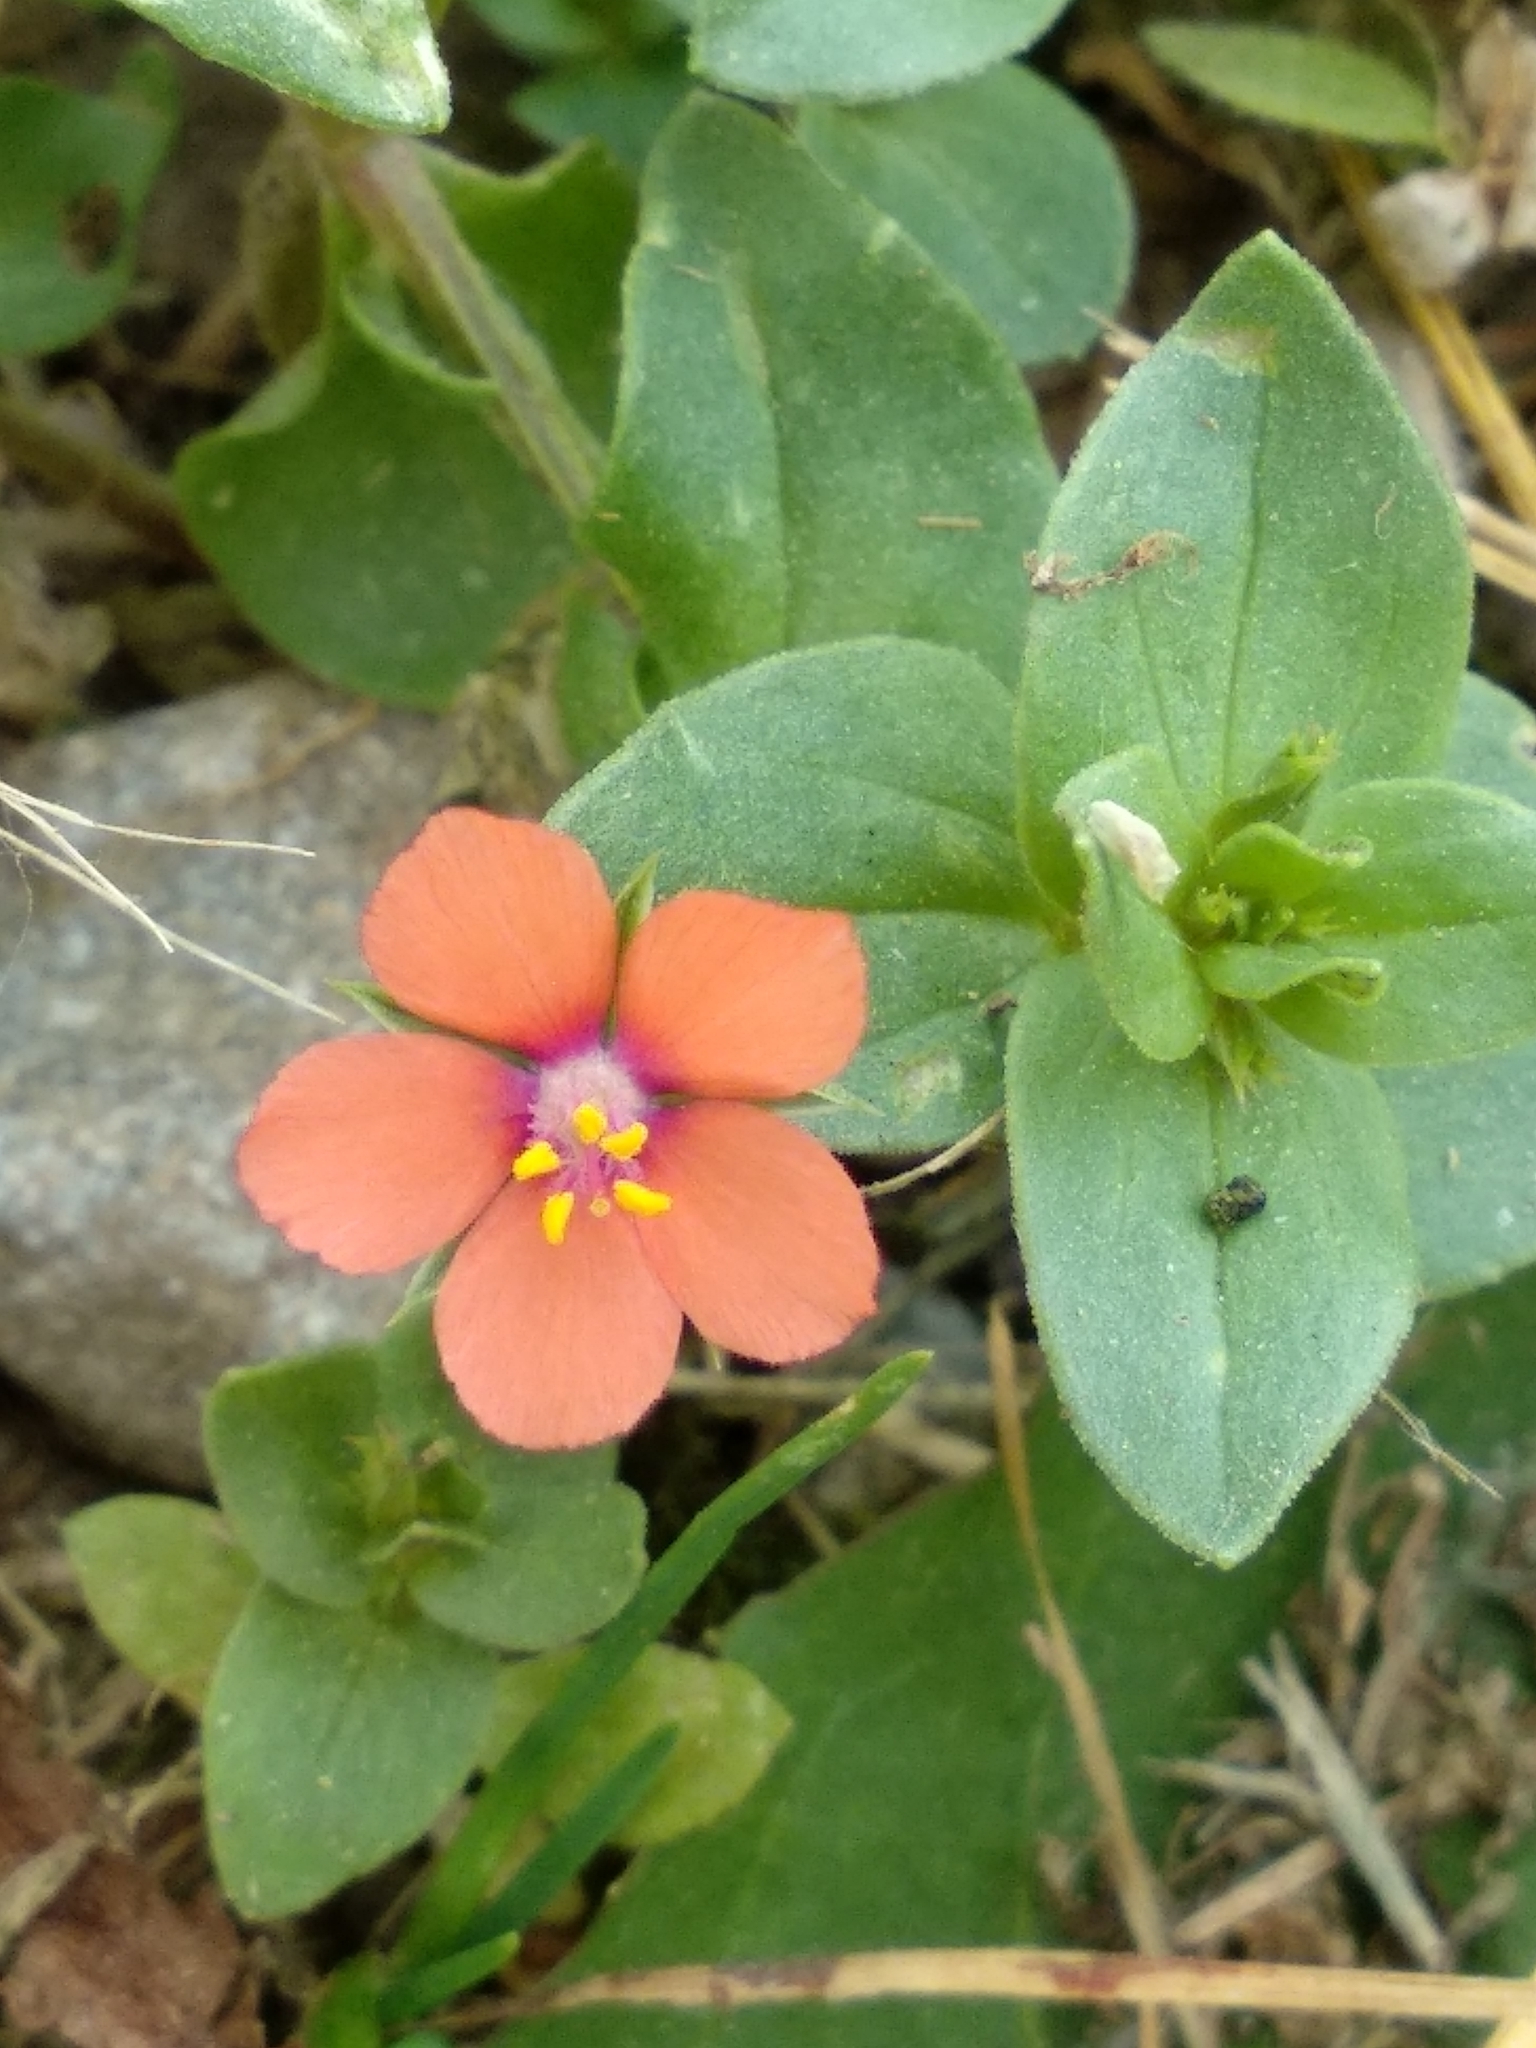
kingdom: Plantae
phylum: Tracheophyta
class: Magnoliopsida
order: Ericales
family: Primulaceae
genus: Lysimachia
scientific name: Lysimachia arvensis
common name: Scarlet pimpernel
